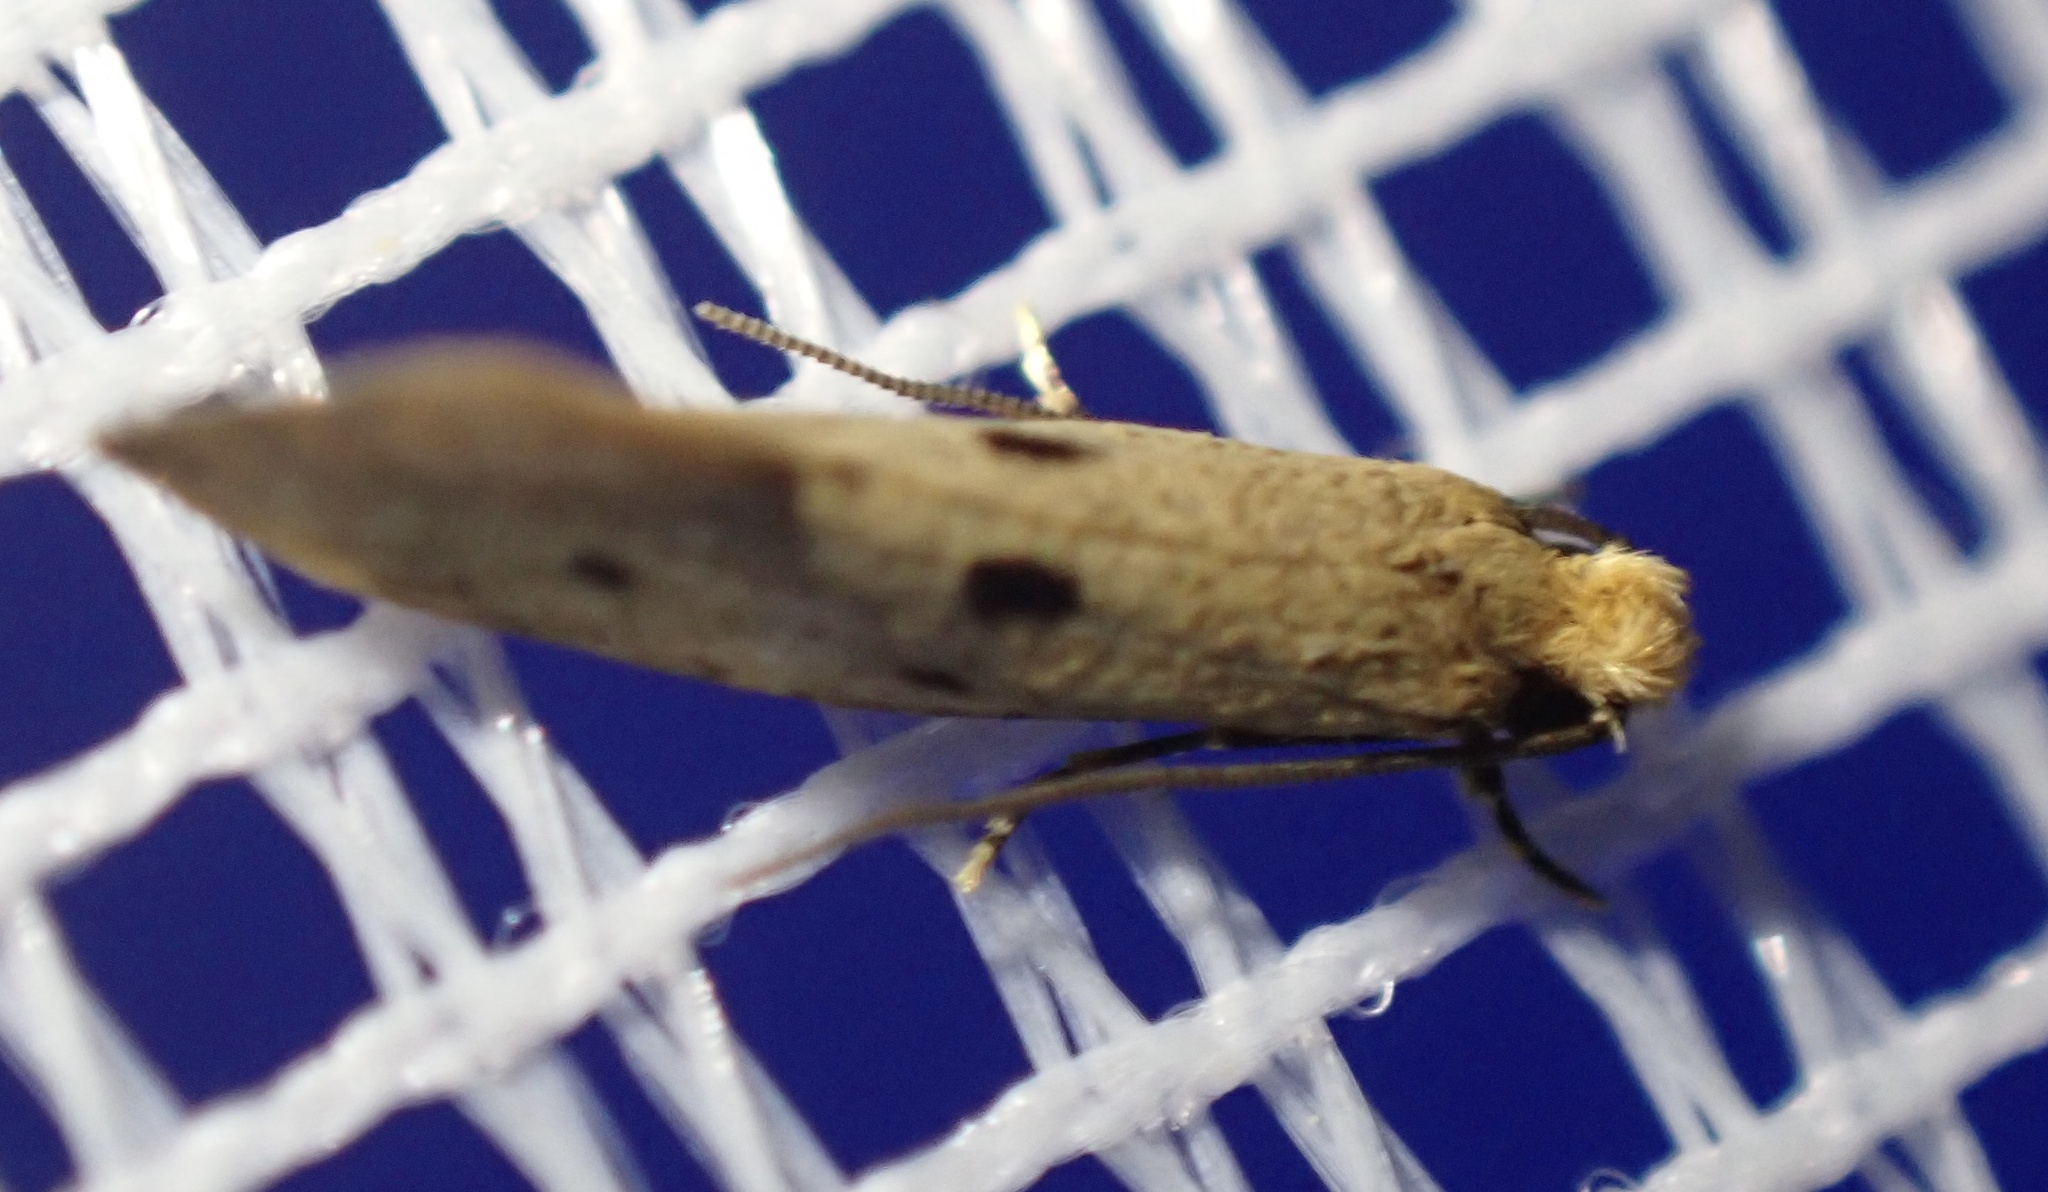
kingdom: Animalia
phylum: Arthropoda
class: Insecta
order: Lepidoptera
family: Tineidae
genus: Tinea
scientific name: Tinea trinotella
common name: Bird's-nest moth
